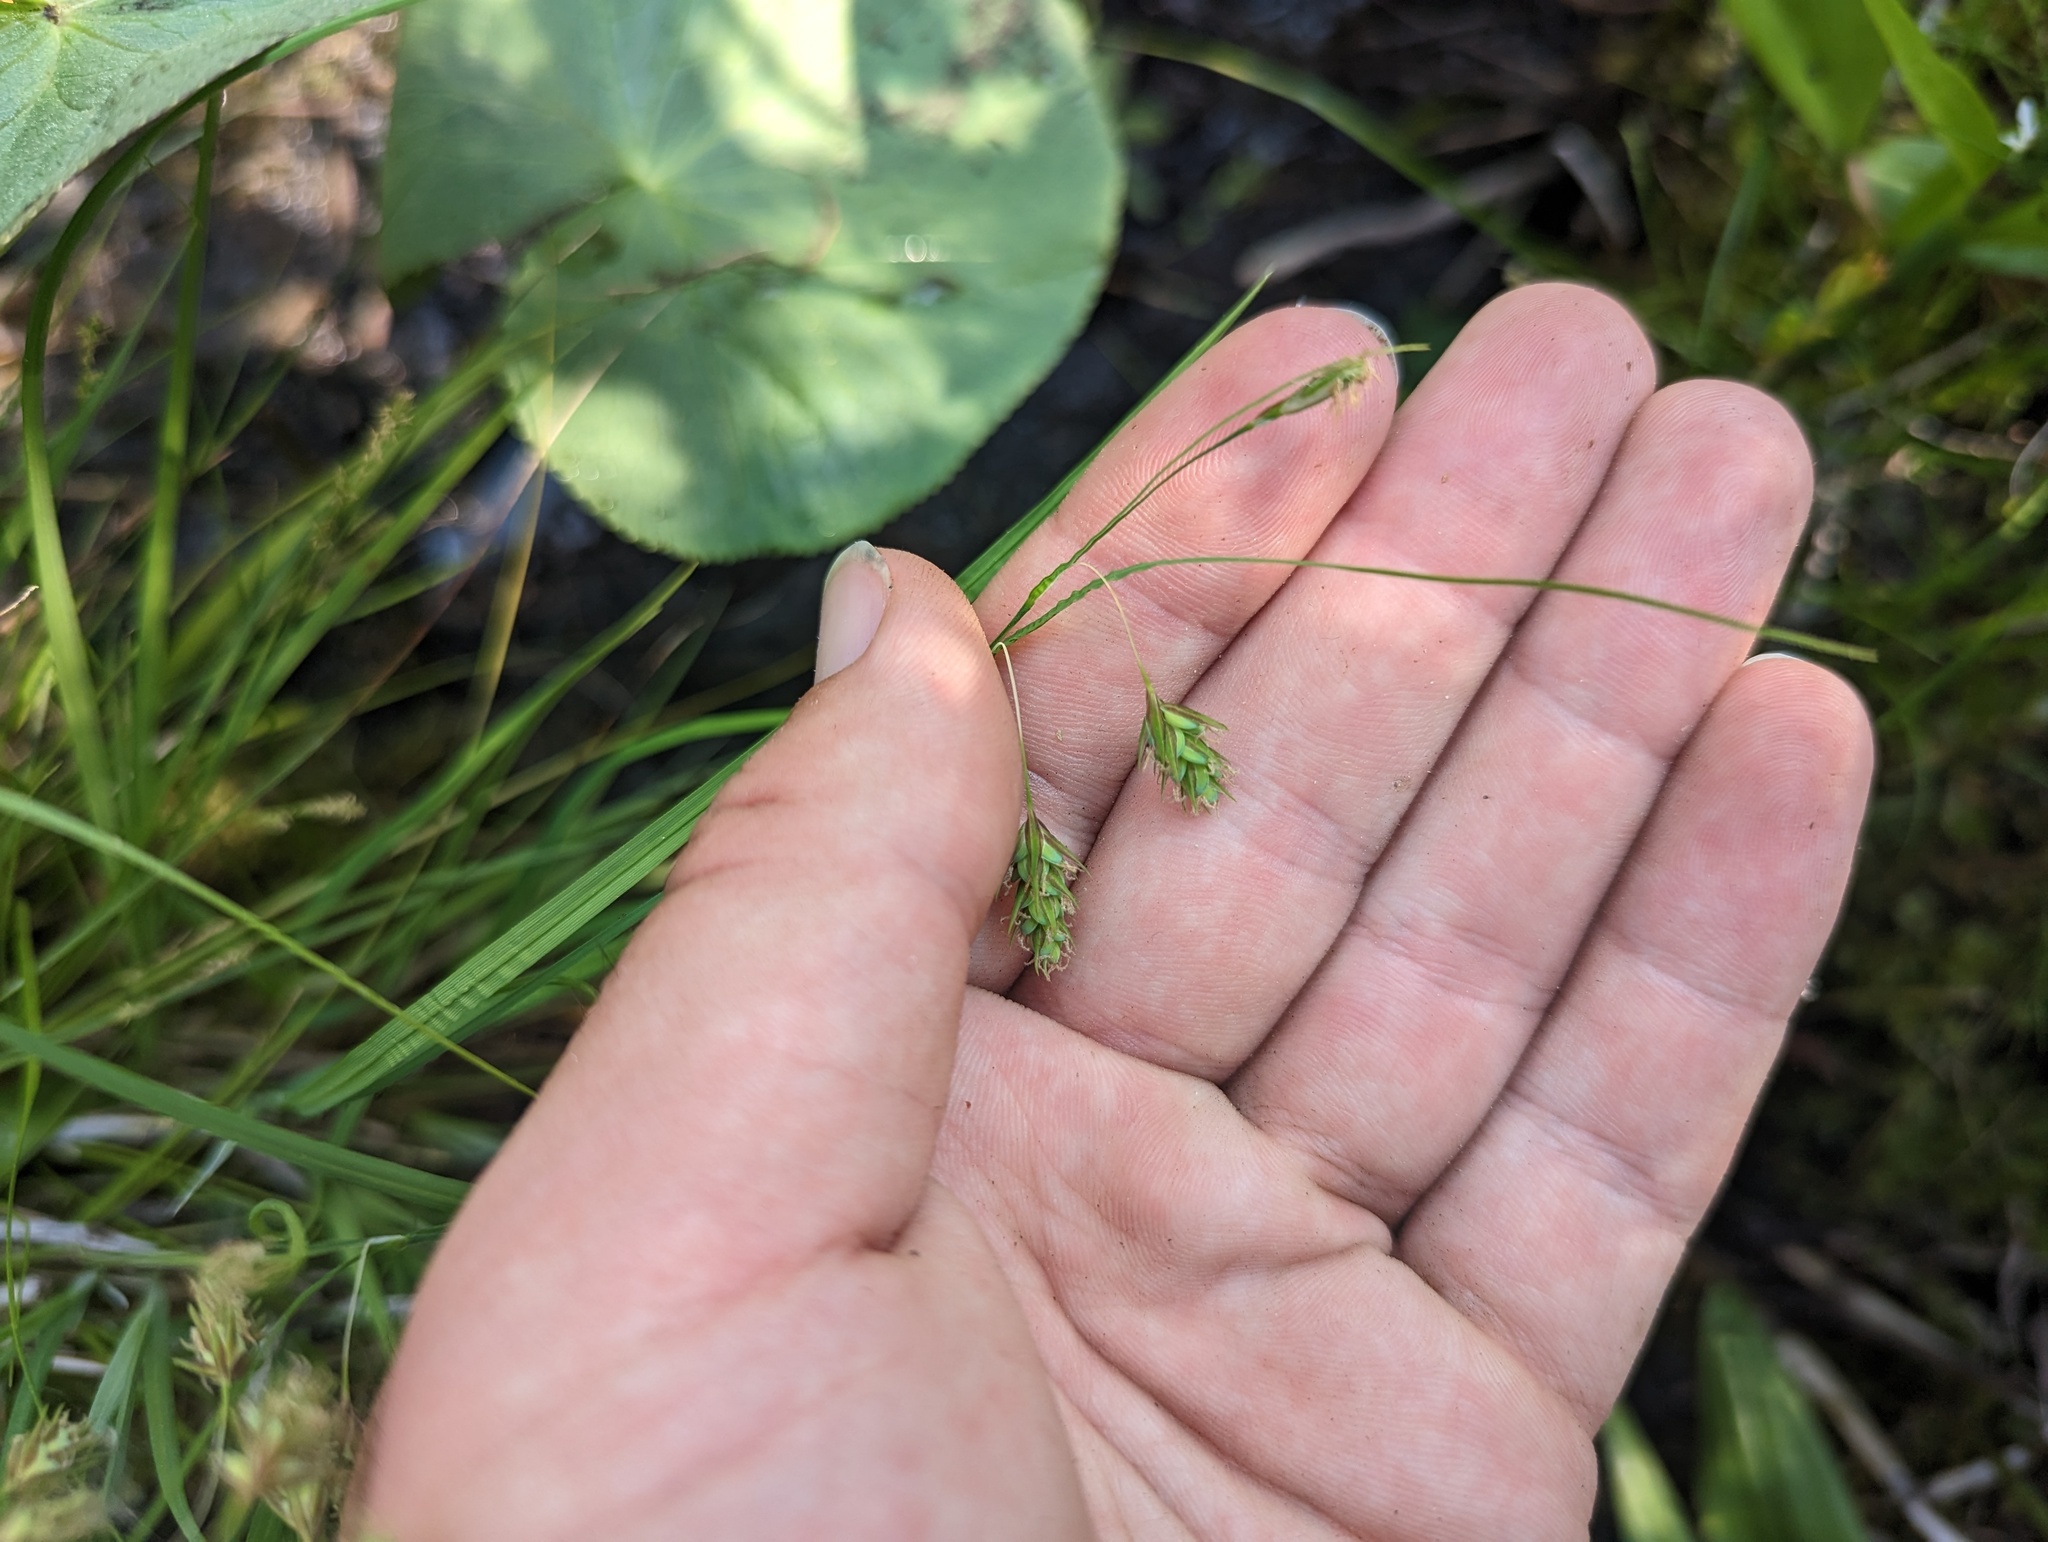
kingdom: Plantae
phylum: Tracheophyta
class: Liliopsida
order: Poales
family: Cyperaceae
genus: Carex
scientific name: Carex magellanica
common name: Bog sedge
